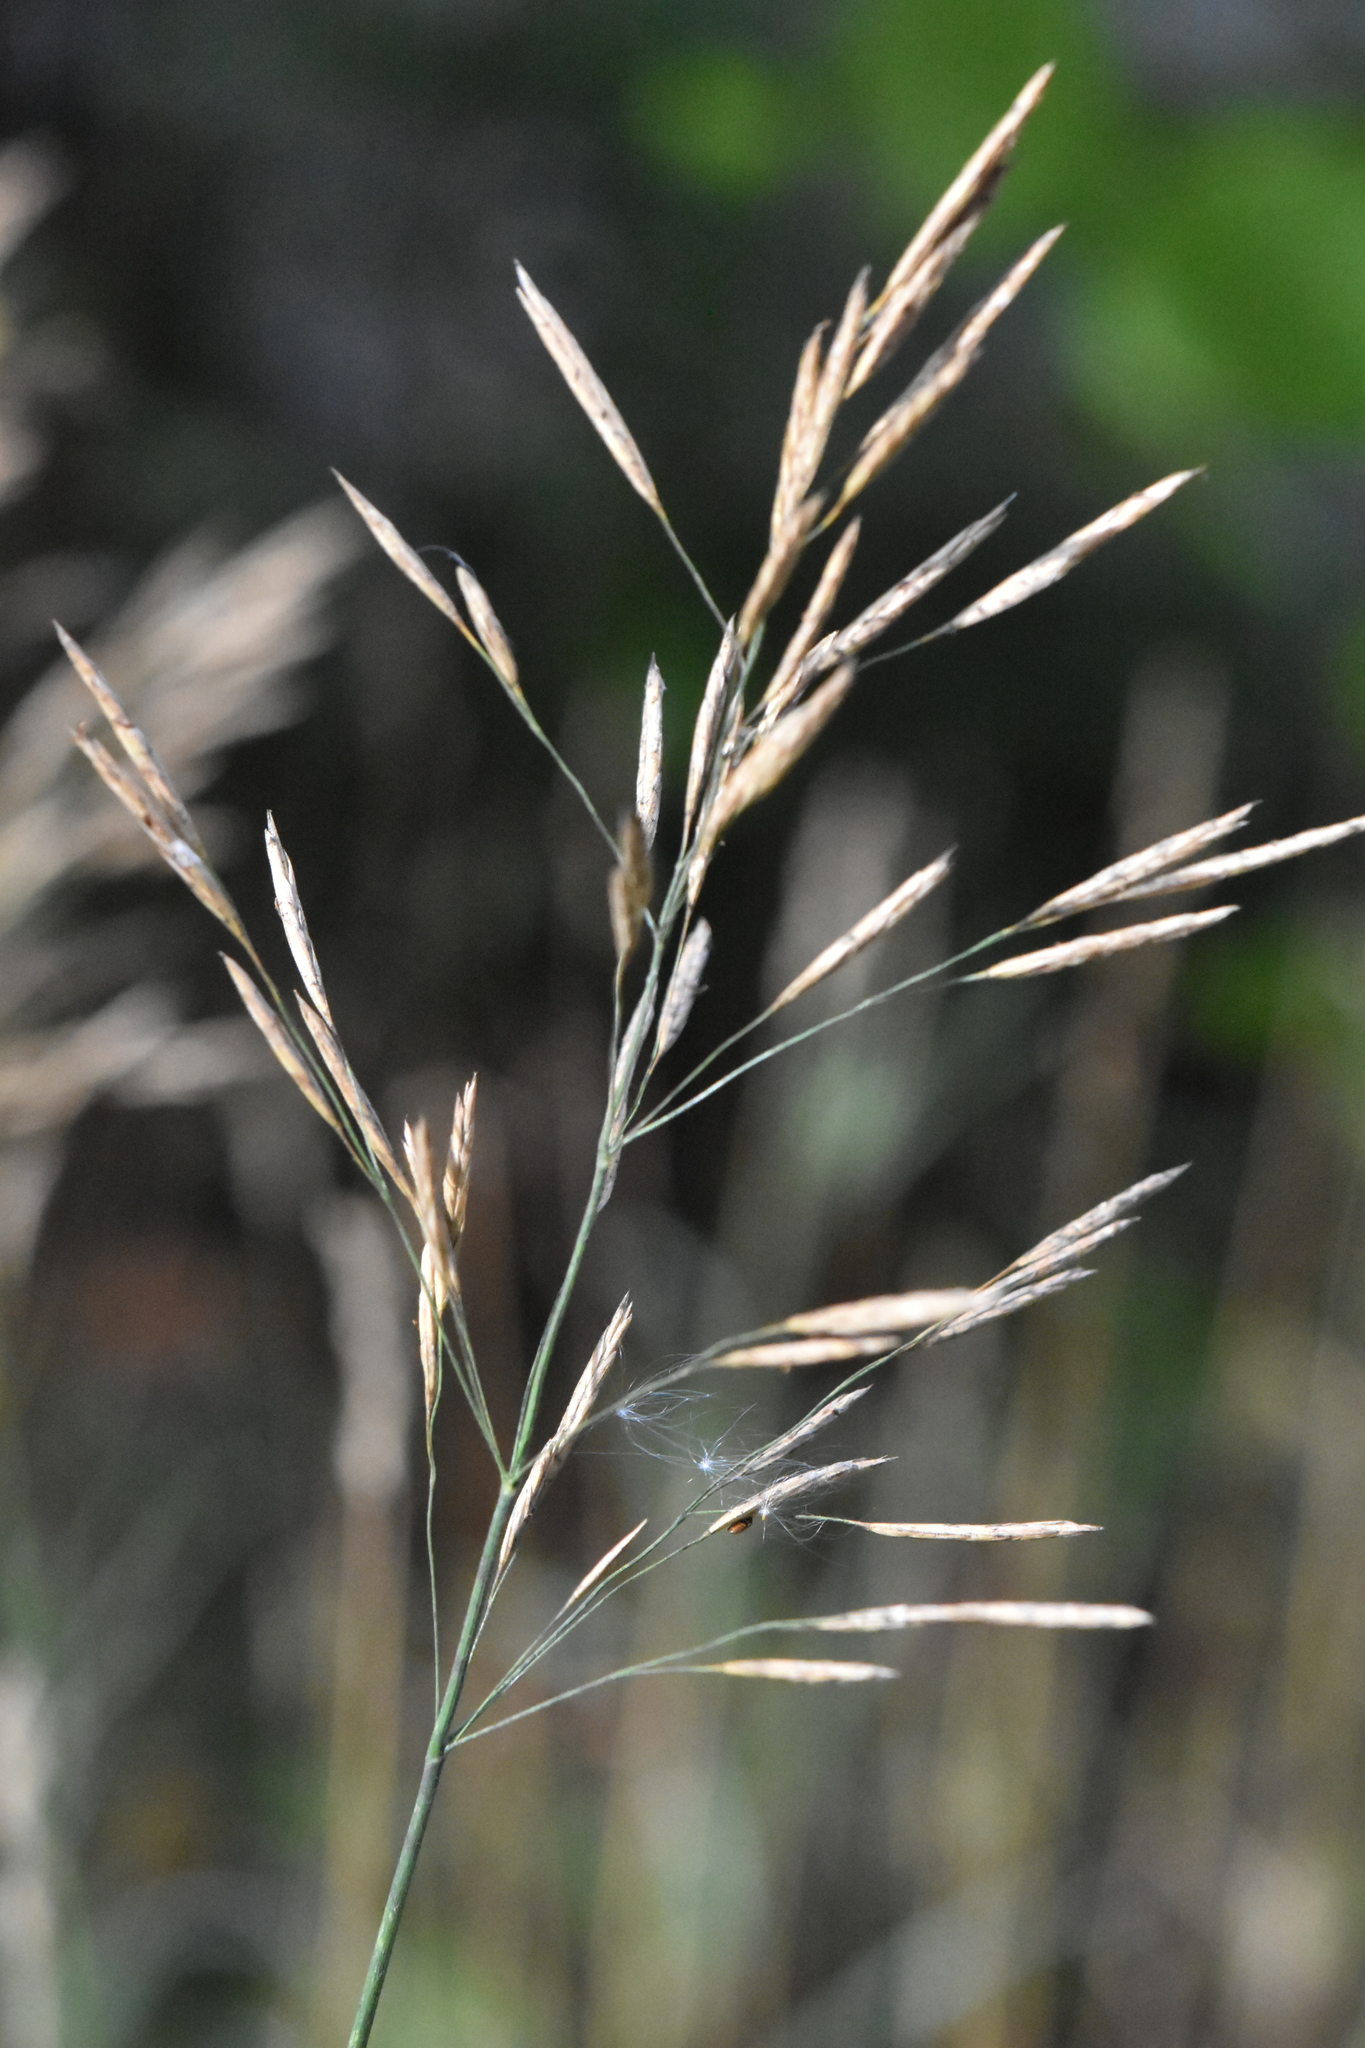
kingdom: Plantae
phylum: Tracheophyta
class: Liliopsida
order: Poales
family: Poaceae
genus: Bromus
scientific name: Bromus inermis
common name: Smooth brome
